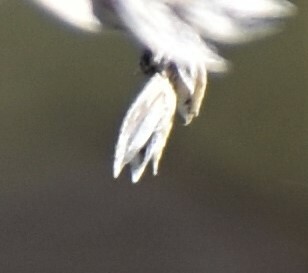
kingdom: Plantae
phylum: Tracheophyta
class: Liliopsida
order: Poales
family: Poaceae
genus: Poa
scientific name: Poa pratensis
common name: Kentucky bluegrass
